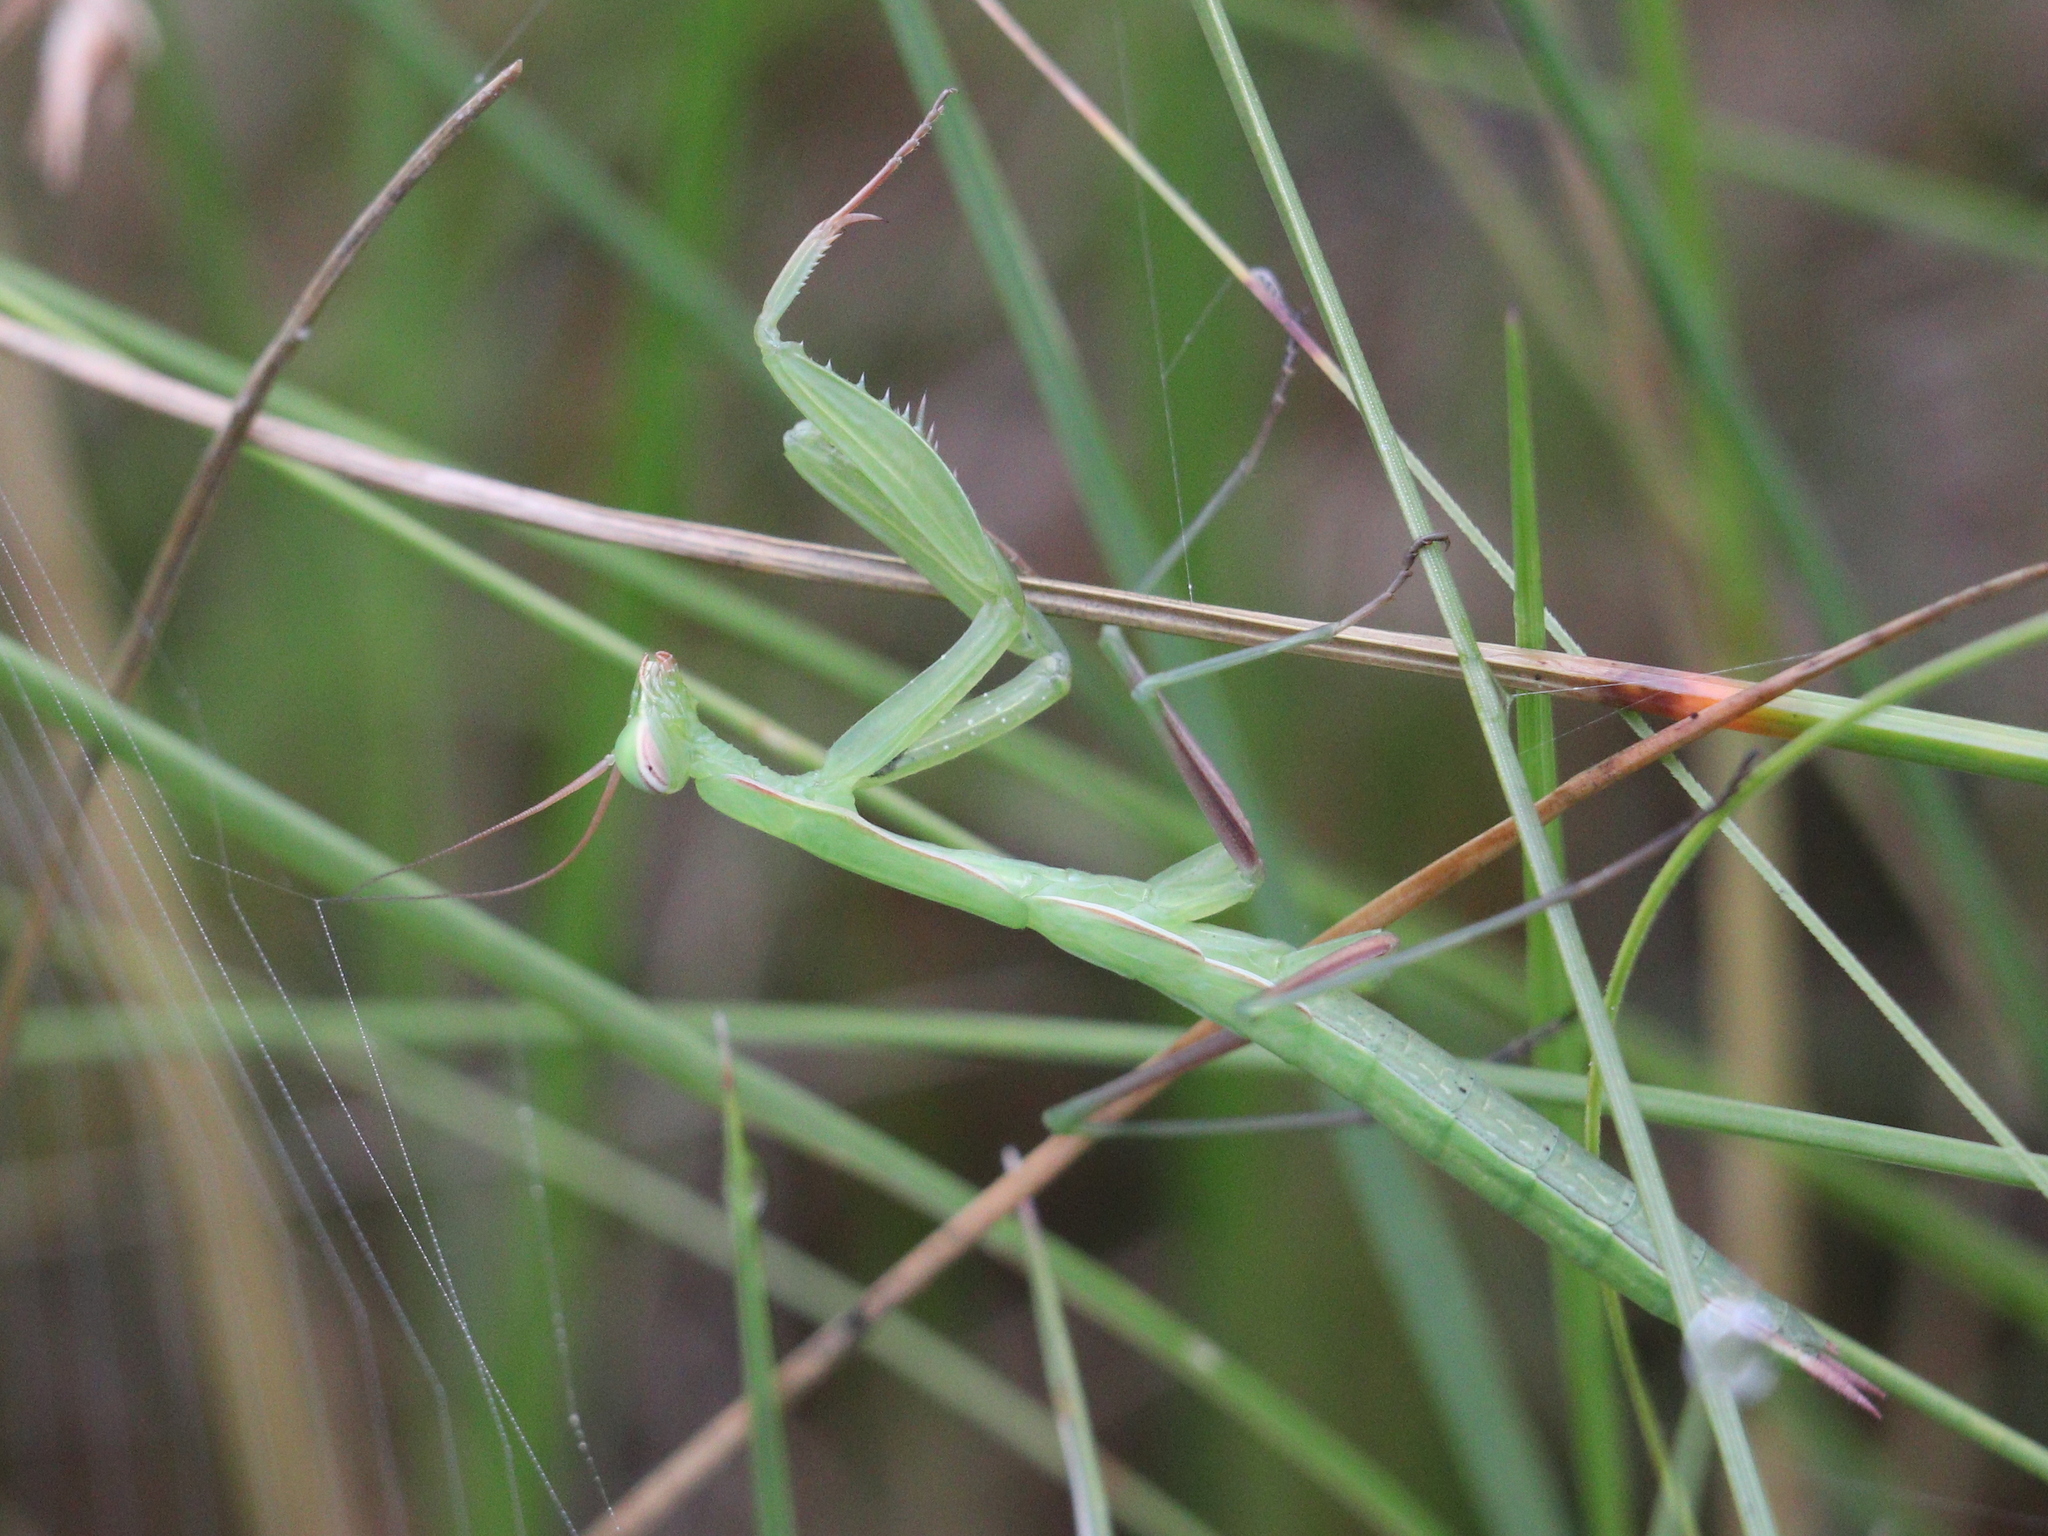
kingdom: Animalia
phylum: Arthropoda
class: Insecta
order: Mantodea
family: Mantidae
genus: Mantis
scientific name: Mantis religiosa
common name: Praying mantis
